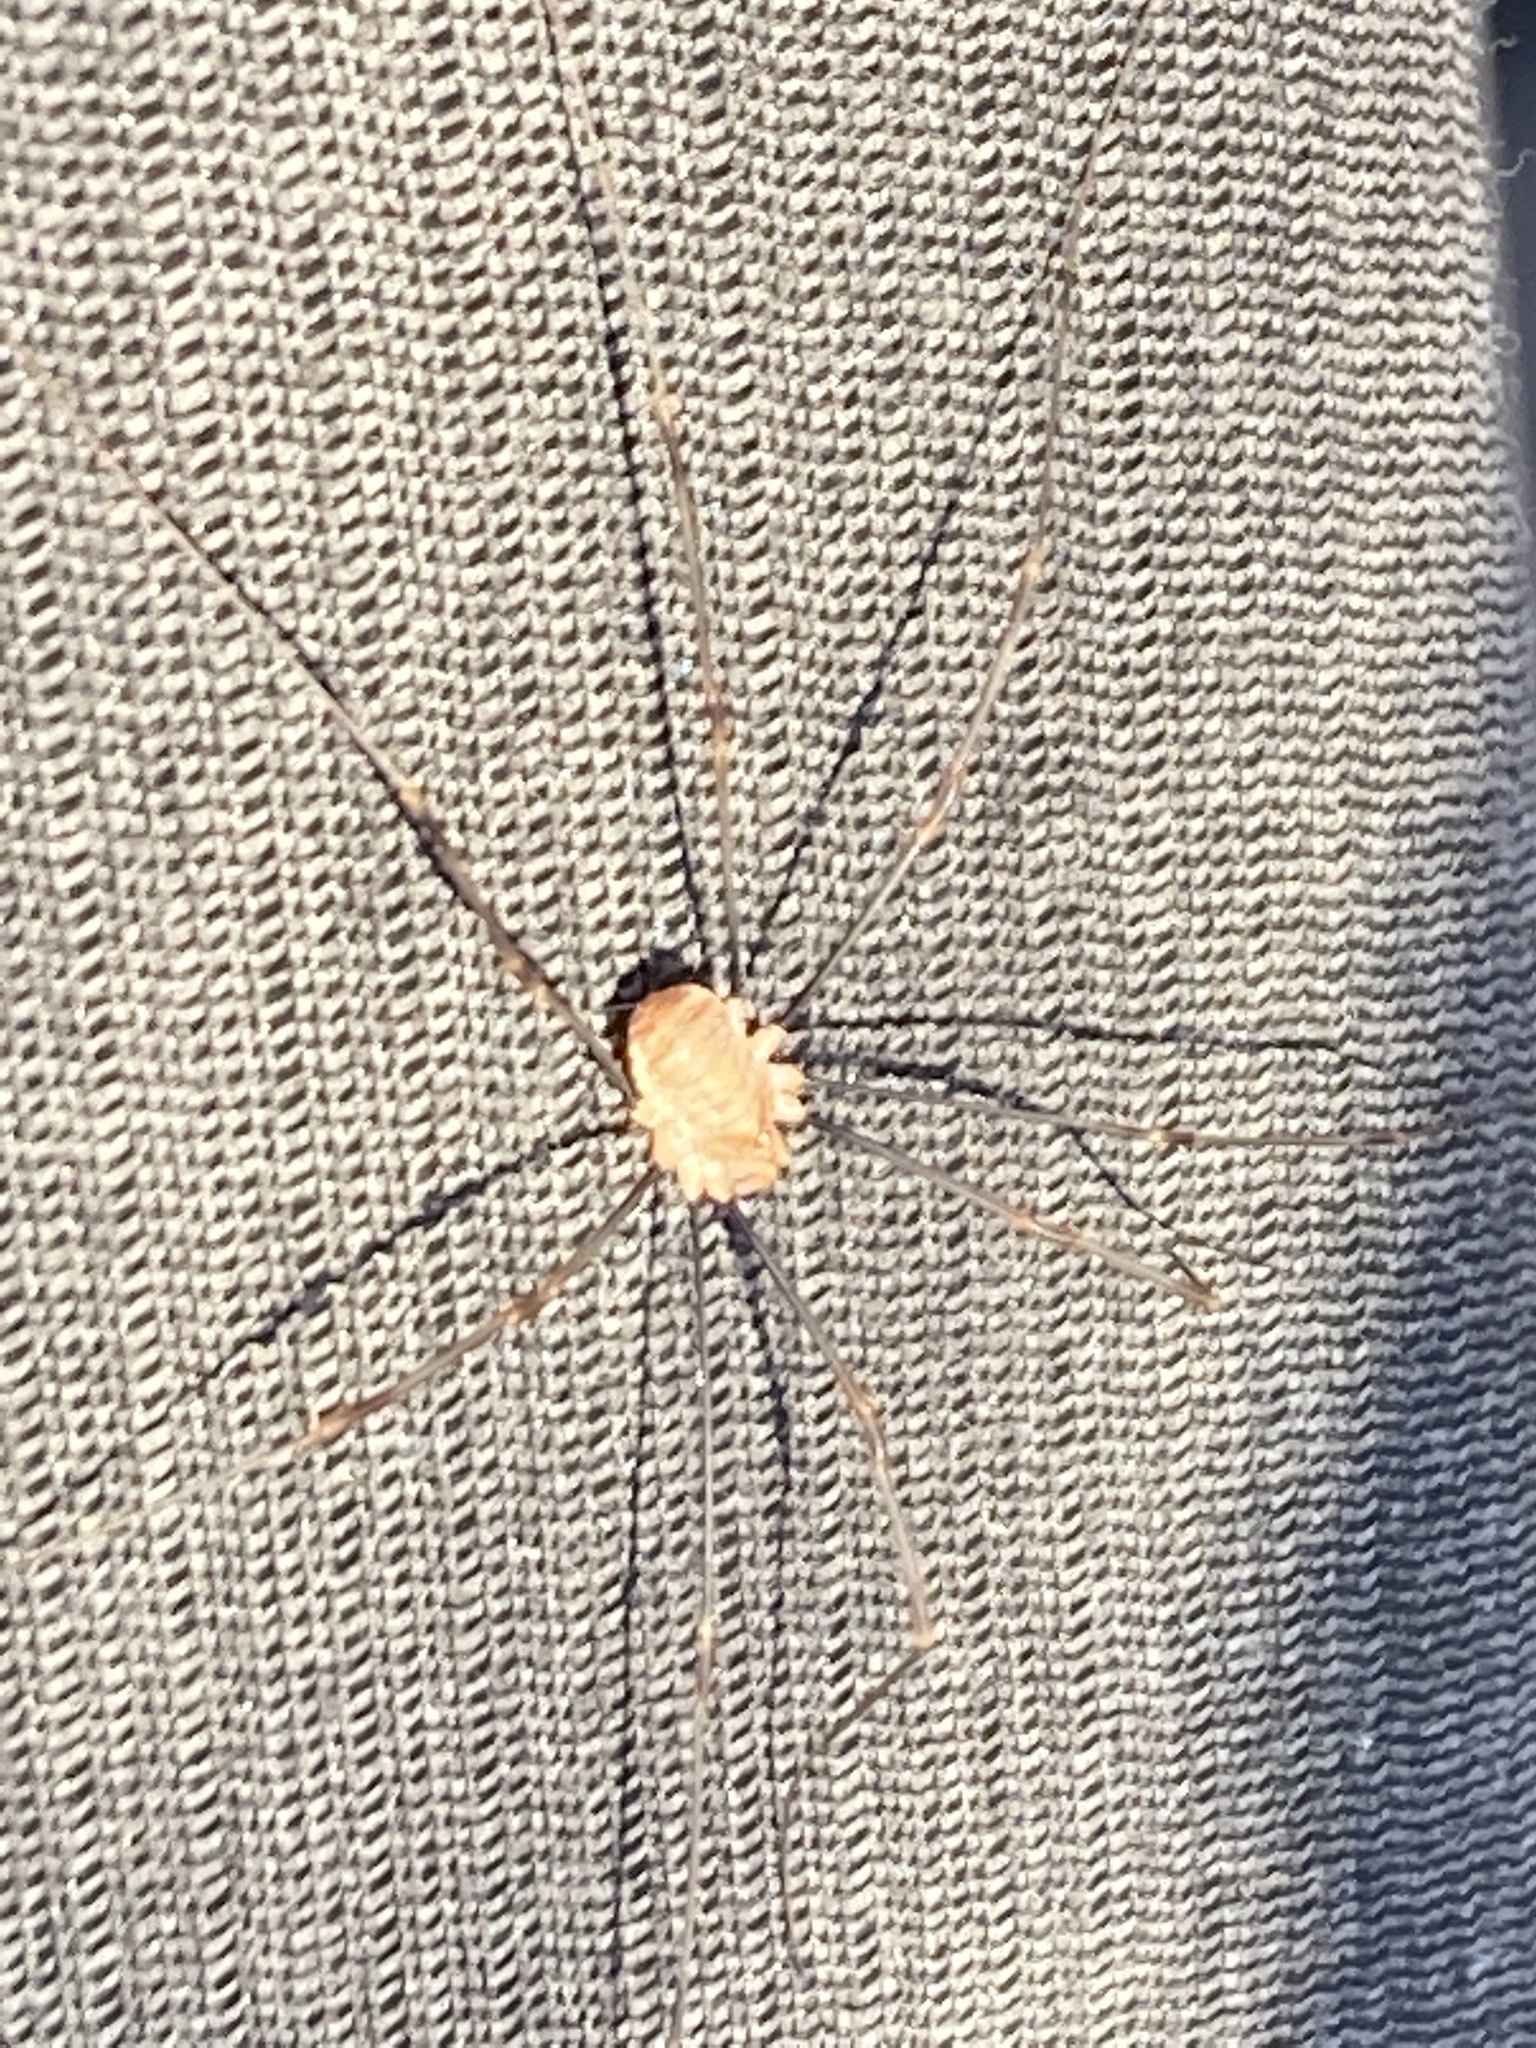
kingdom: Animalia
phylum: Arthropoda
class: Arachnida
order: Opiliones
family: Phalangiidae
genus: Opilio
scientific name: Opilio canestrinii
